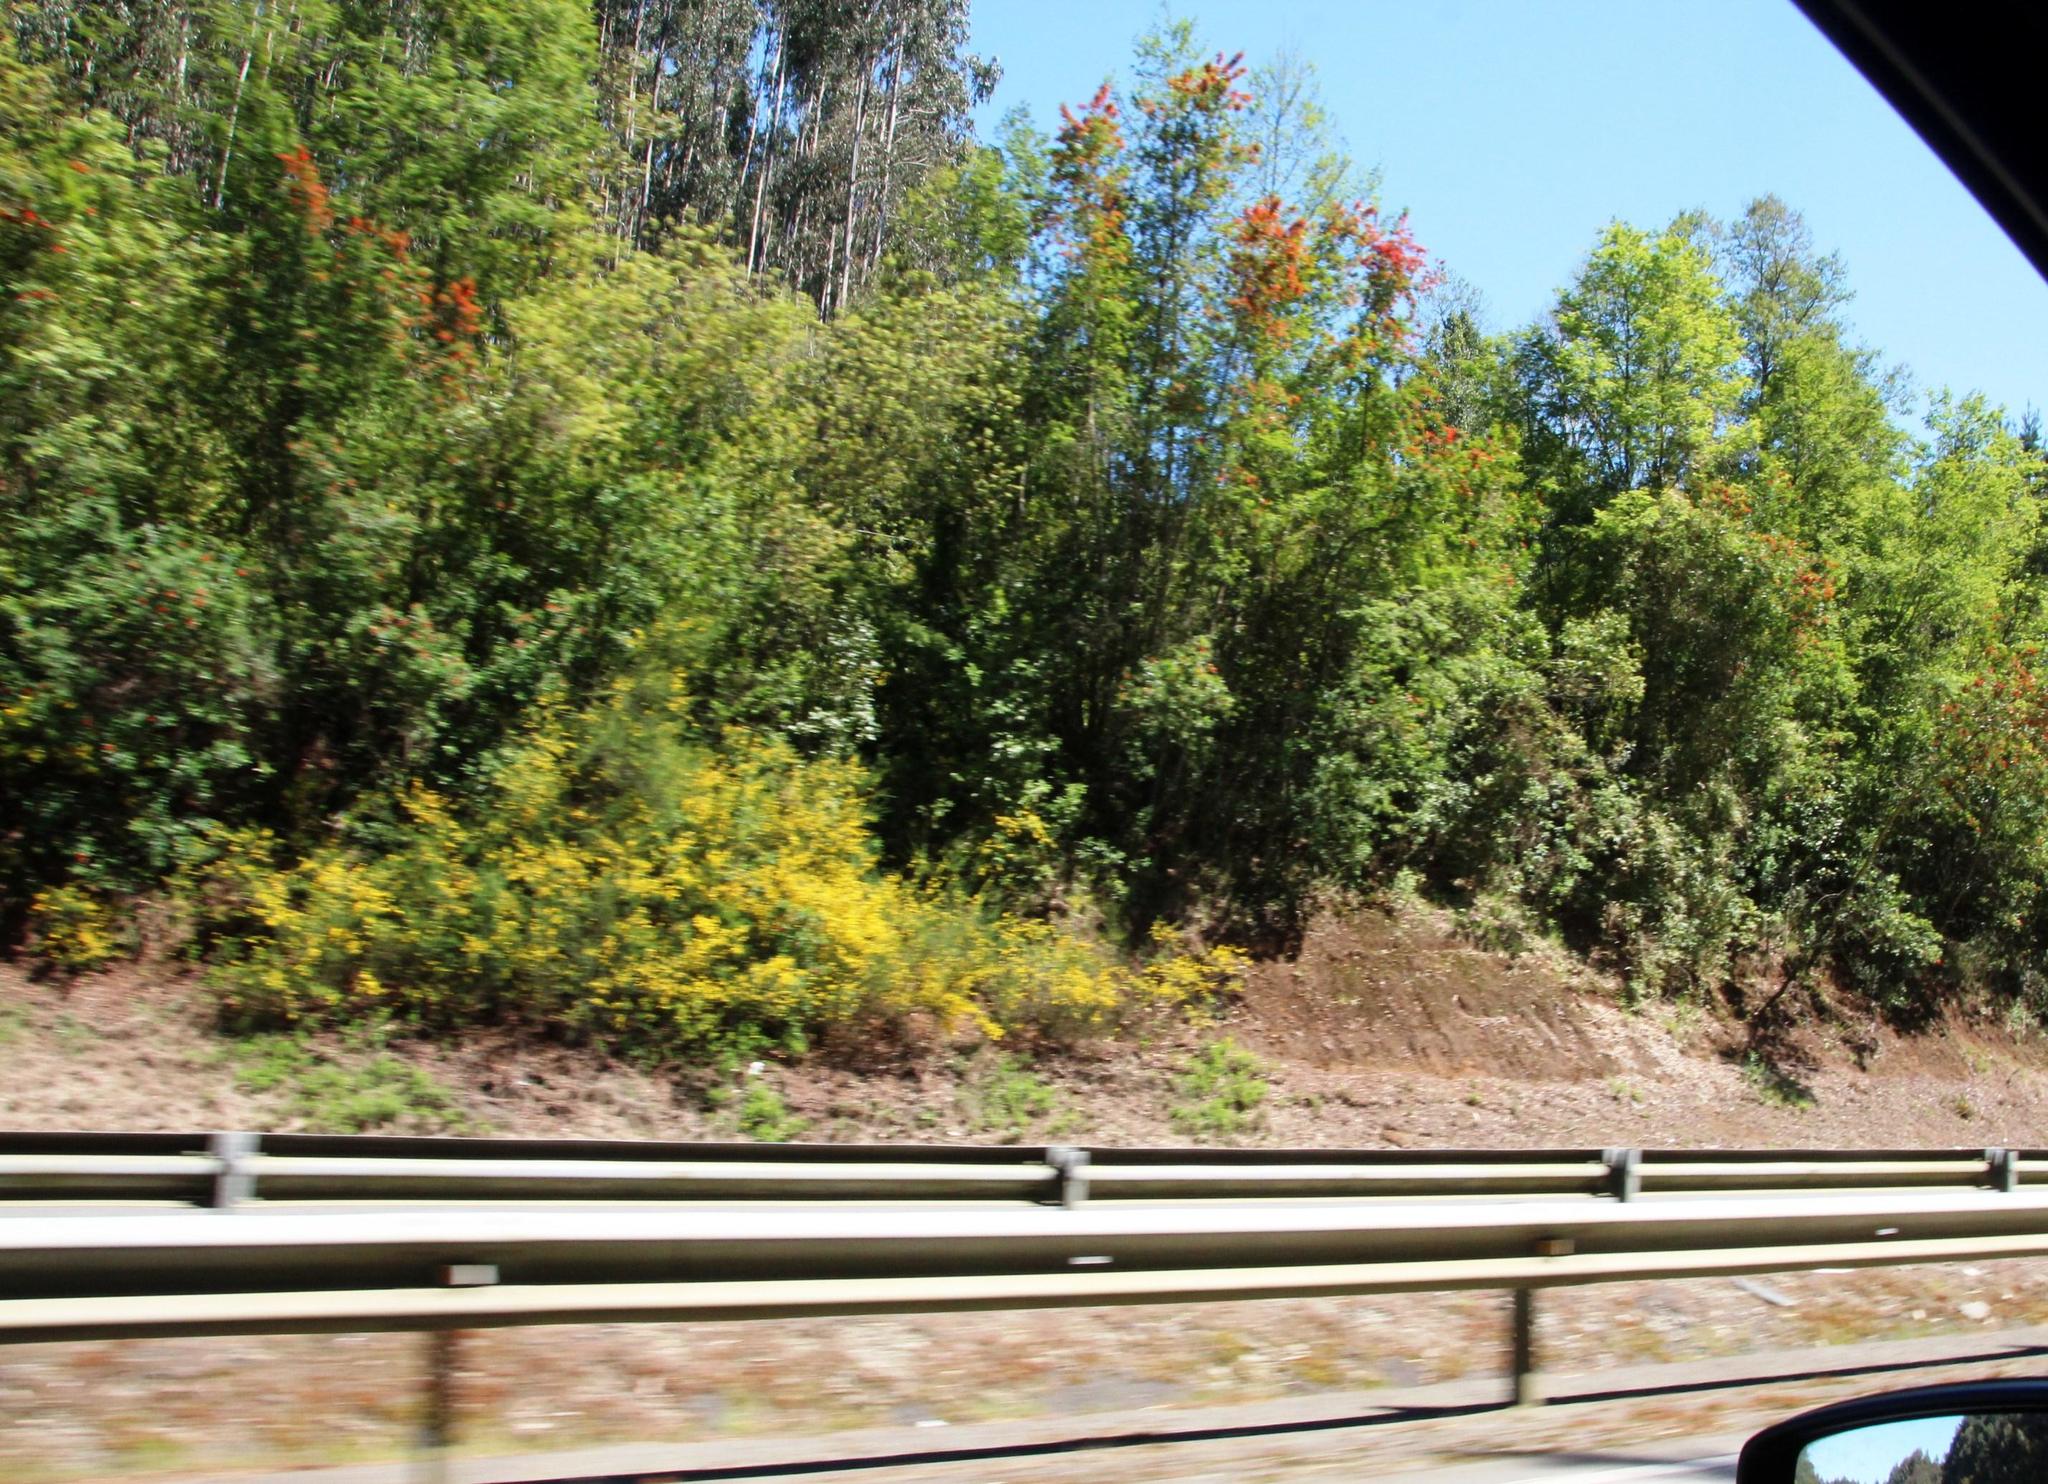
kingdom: Plantae
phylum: Tracheophyta
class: Magnoliopsida
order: Proteales
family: Proteaceae
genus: Embothrium
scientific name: Embothrium coccineum
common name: Chilean firebush
